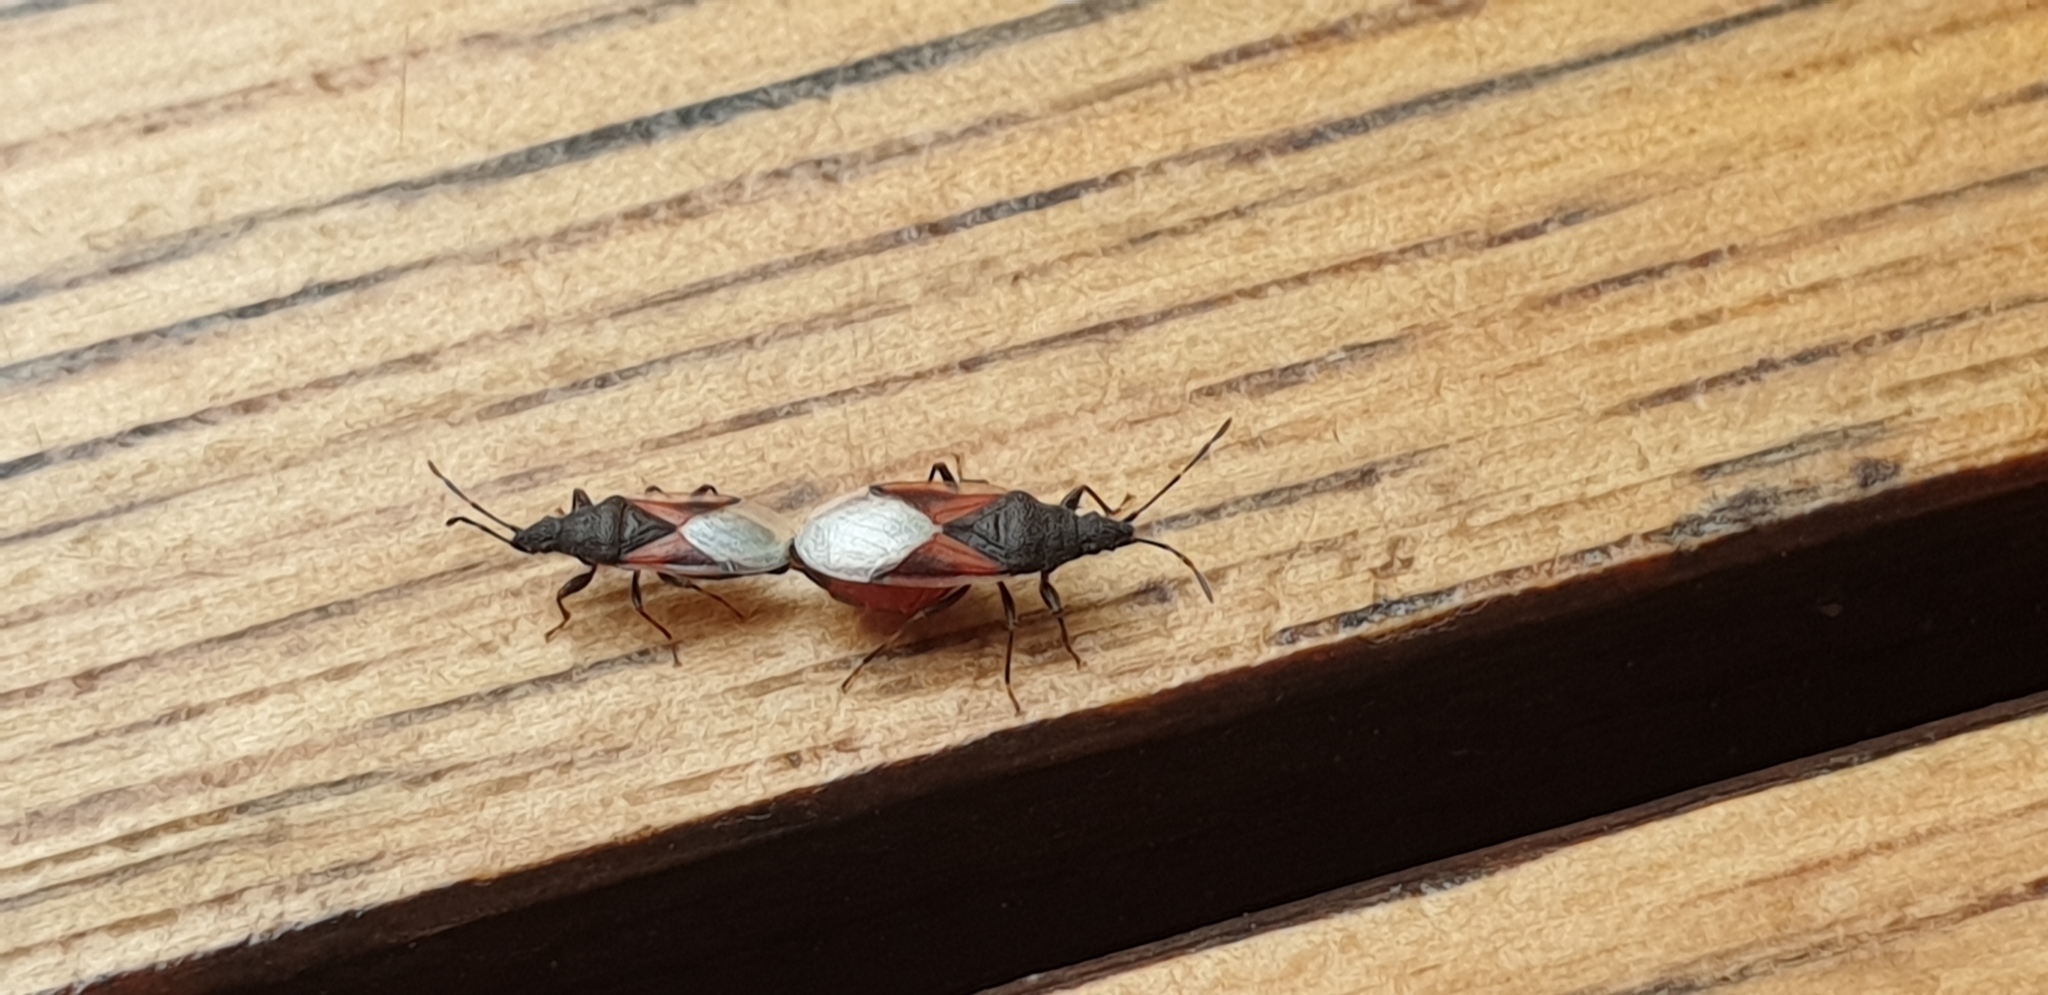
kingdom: Animalia
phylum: Arthropoda
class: Insecta
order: Hemiptera
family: Oxycarenidae
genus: Oxycarenus
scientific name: Oxycarenus lavaterae
